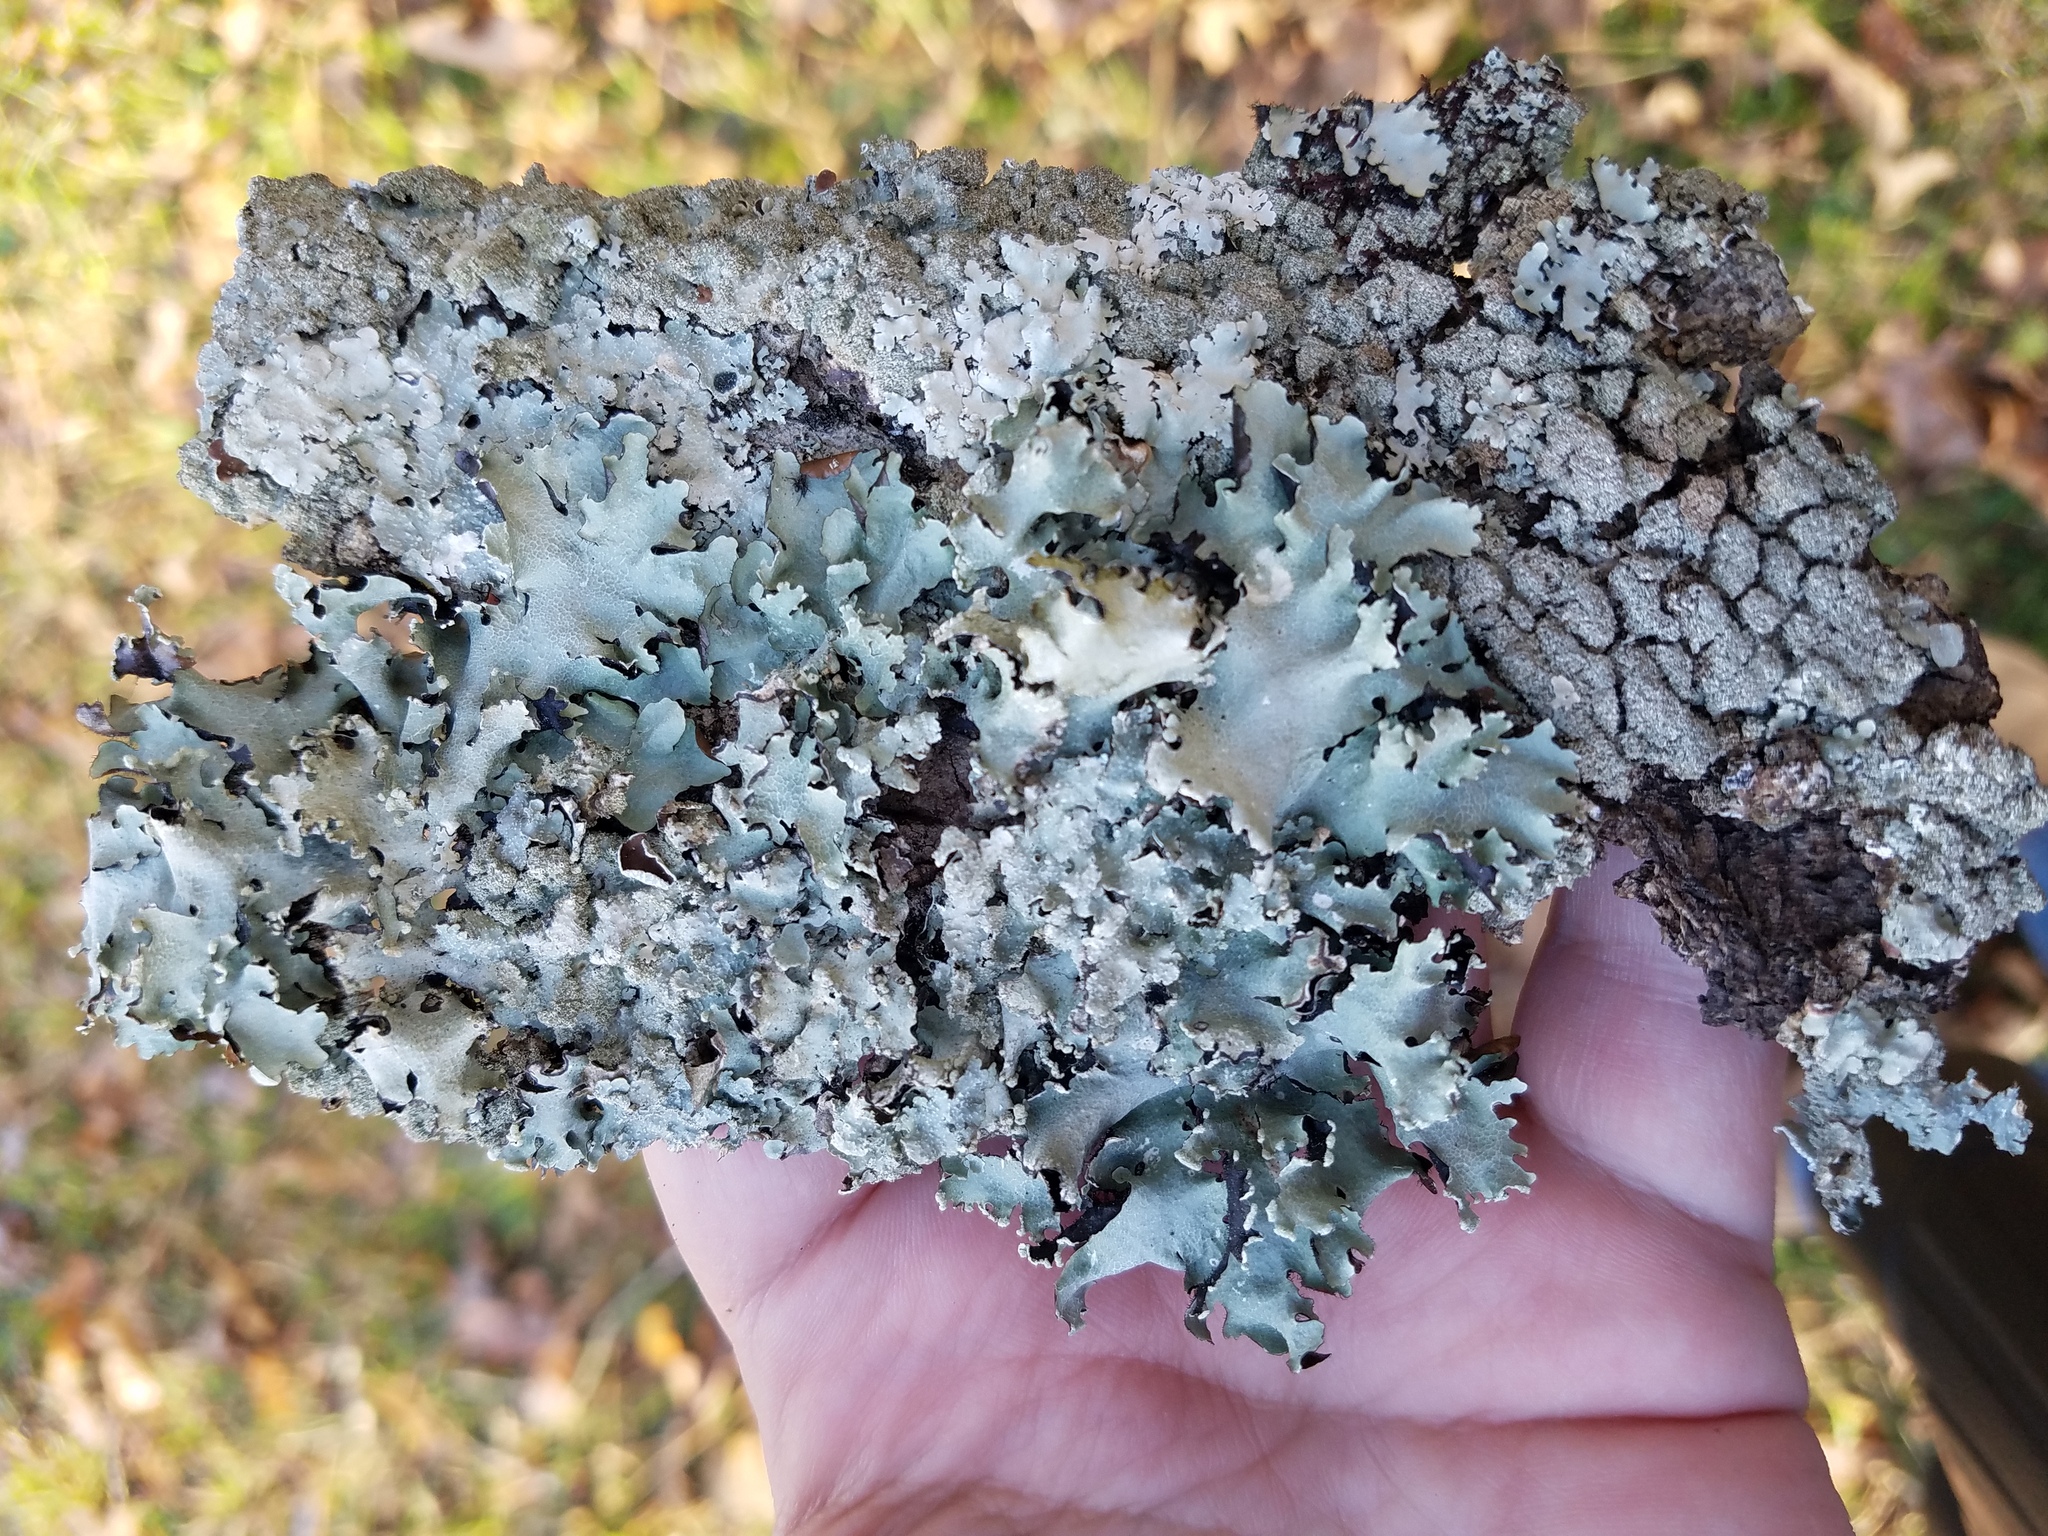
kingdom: Fungi
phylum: Ascomycota
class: Lecanoromycetes
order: Lecanorales
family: Parmeliaceae
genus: Parmotrema
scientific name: Parmotrema reticulatum
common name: Black sheet lichen
